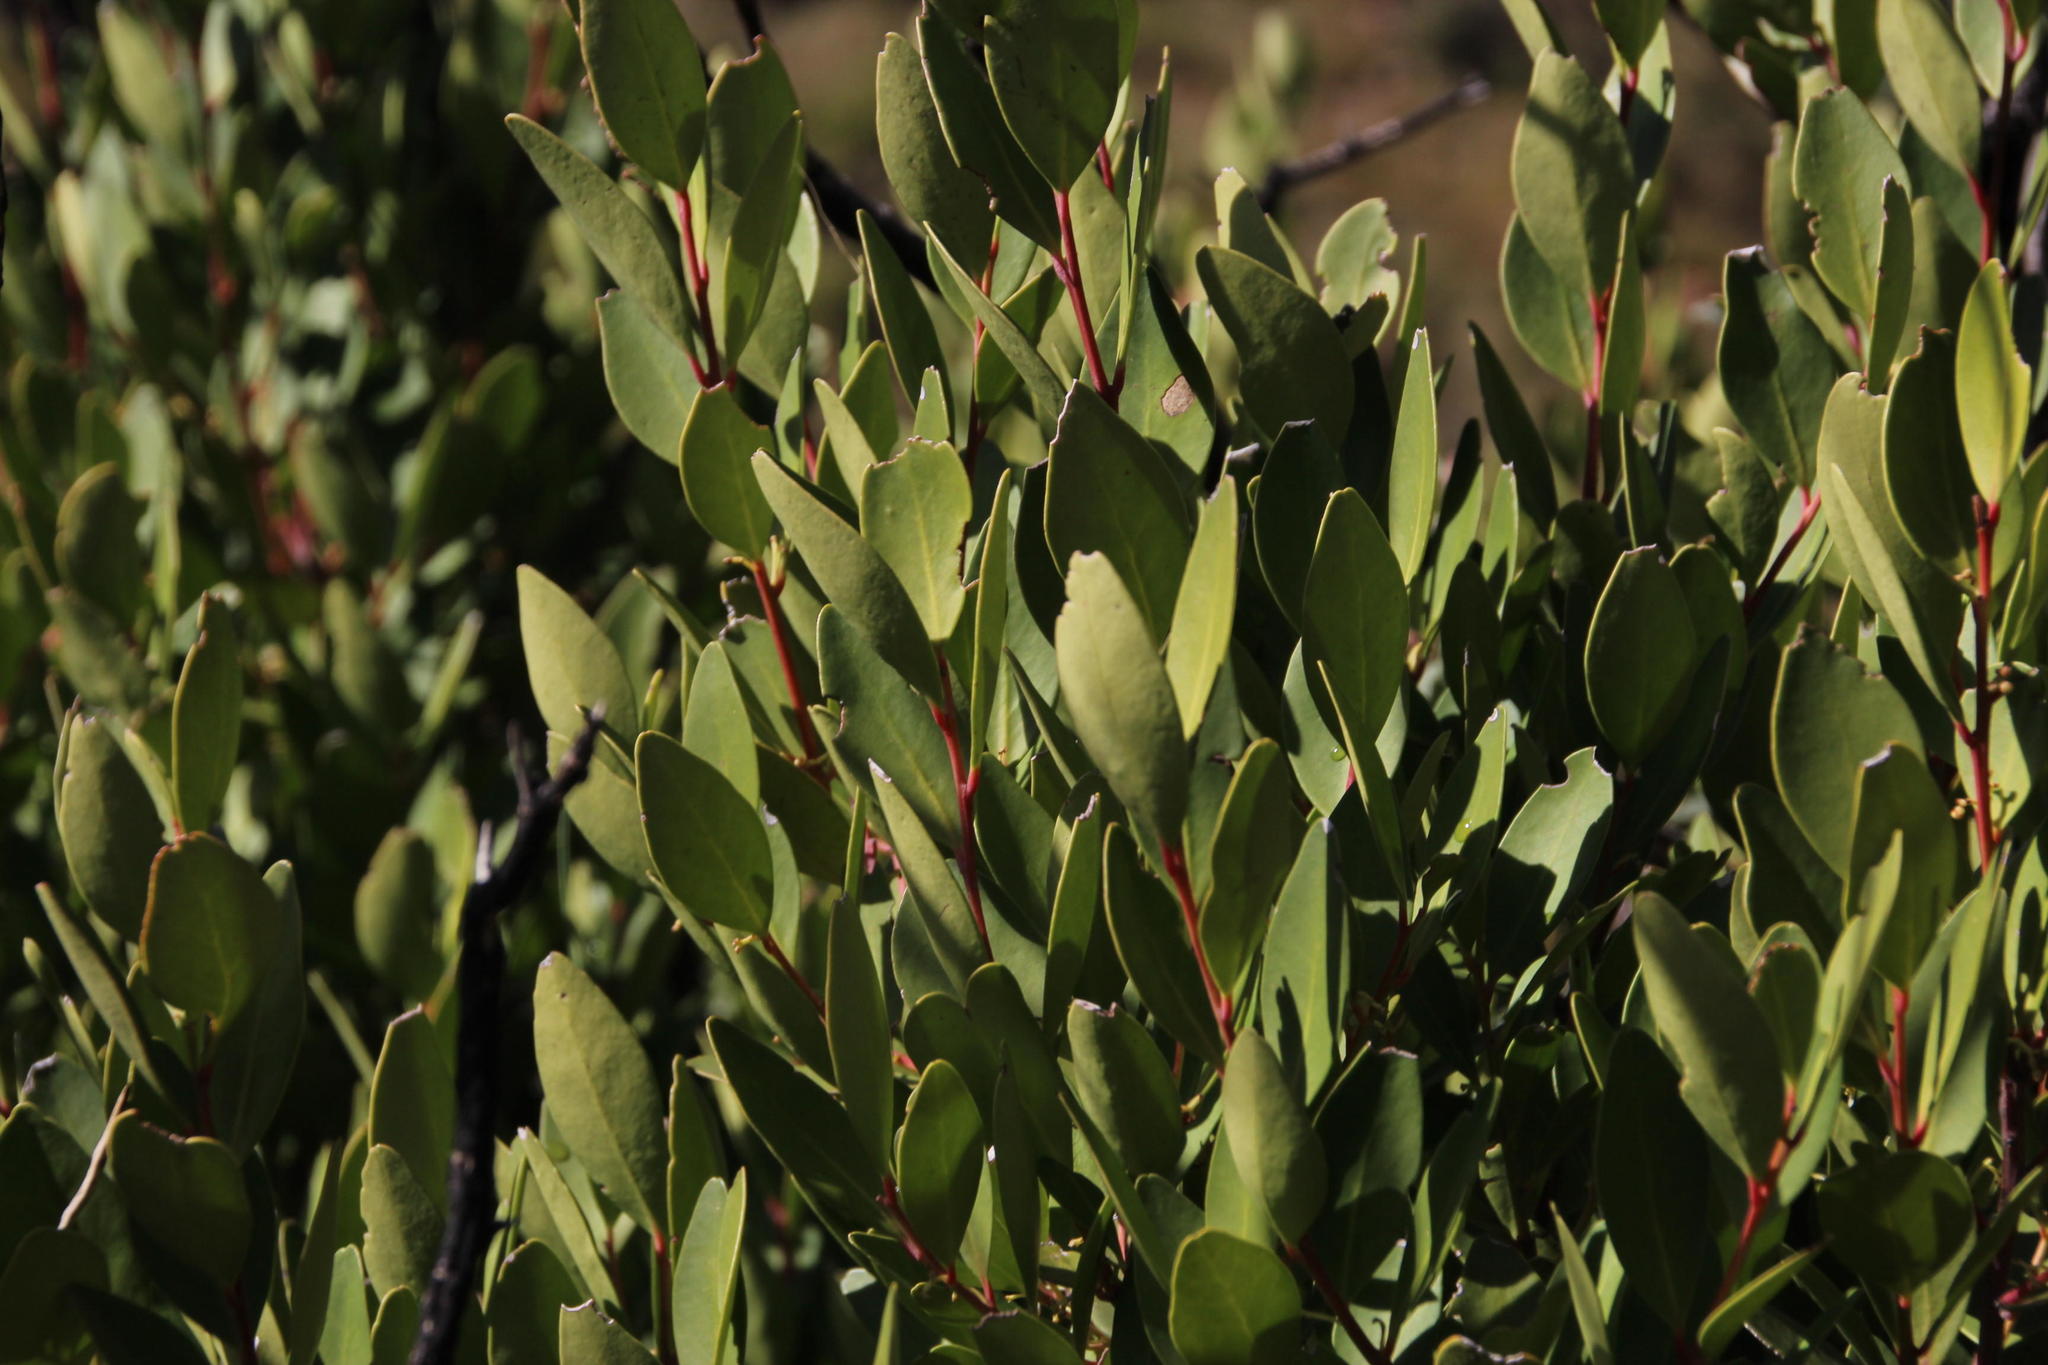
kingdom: Plantae
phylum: Tracheophyta
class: Magnoliopsida
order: Celastrales
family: Celastraceae
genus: Gymnosporia
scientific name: Gymnosporia laurina
